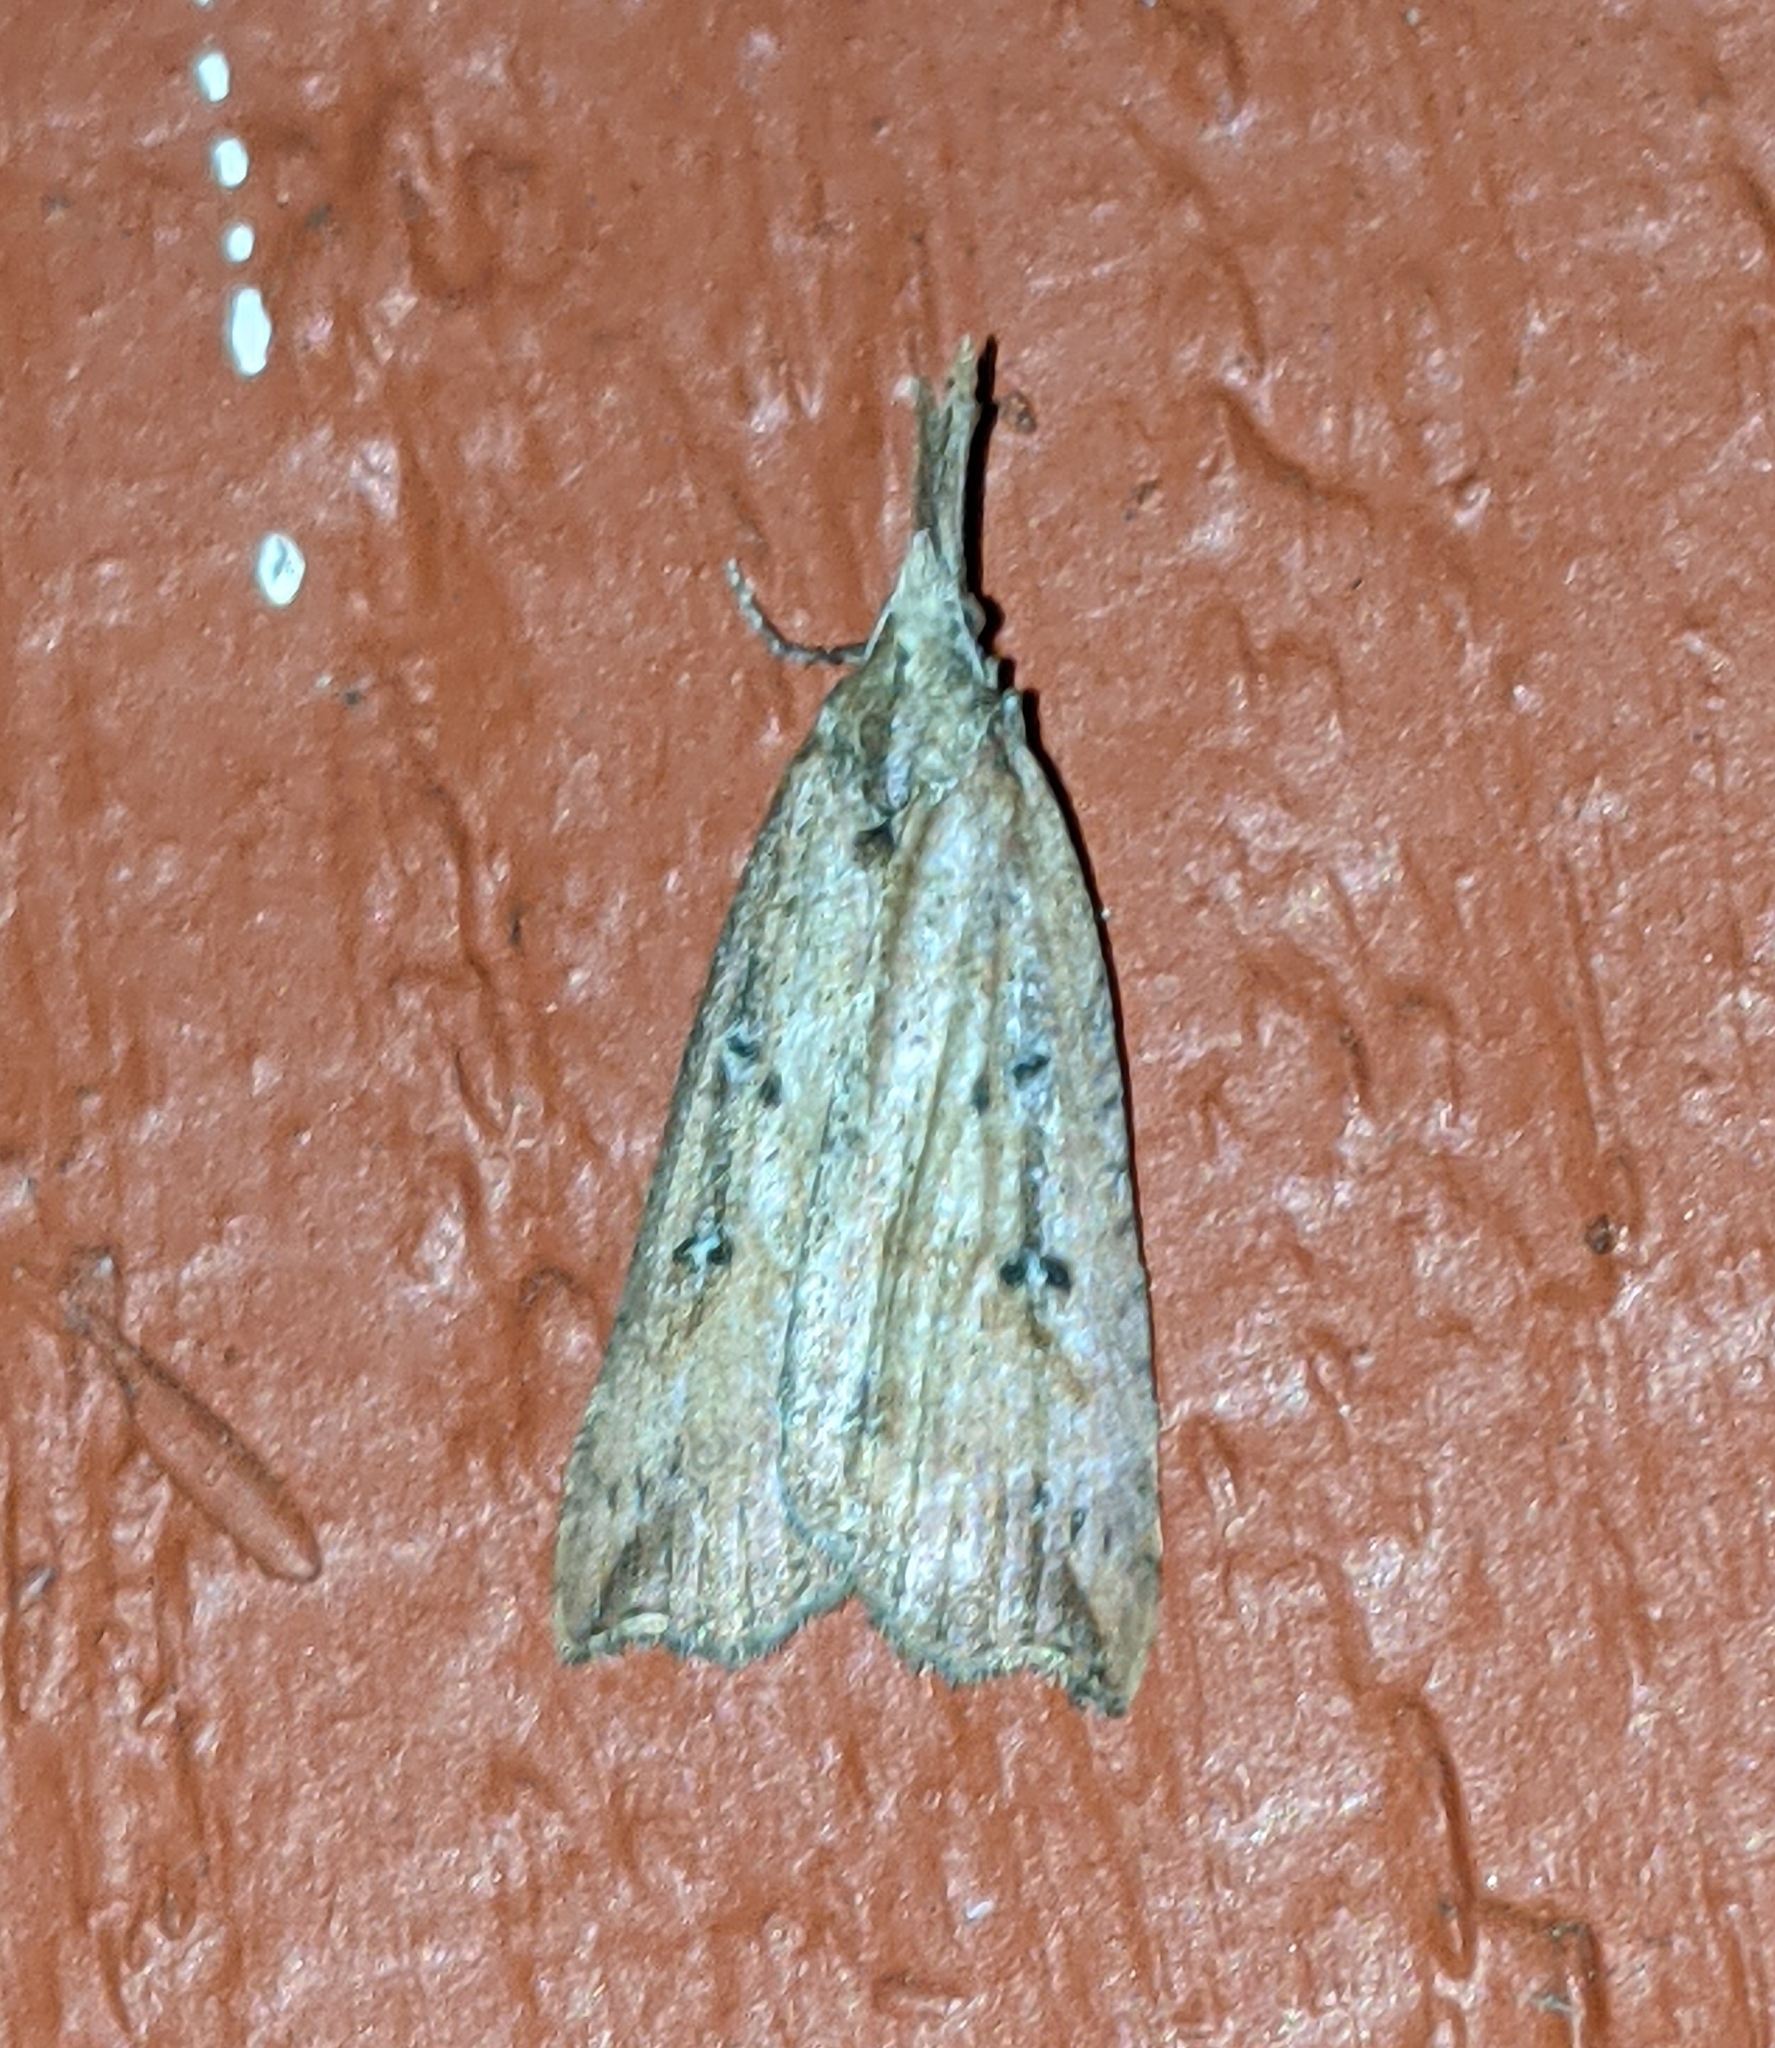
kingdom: Animalia
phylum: Arthropoda
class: Insecta
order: Lepidoptera
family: Erebidae
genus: Hypena
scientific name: Hypena californica
